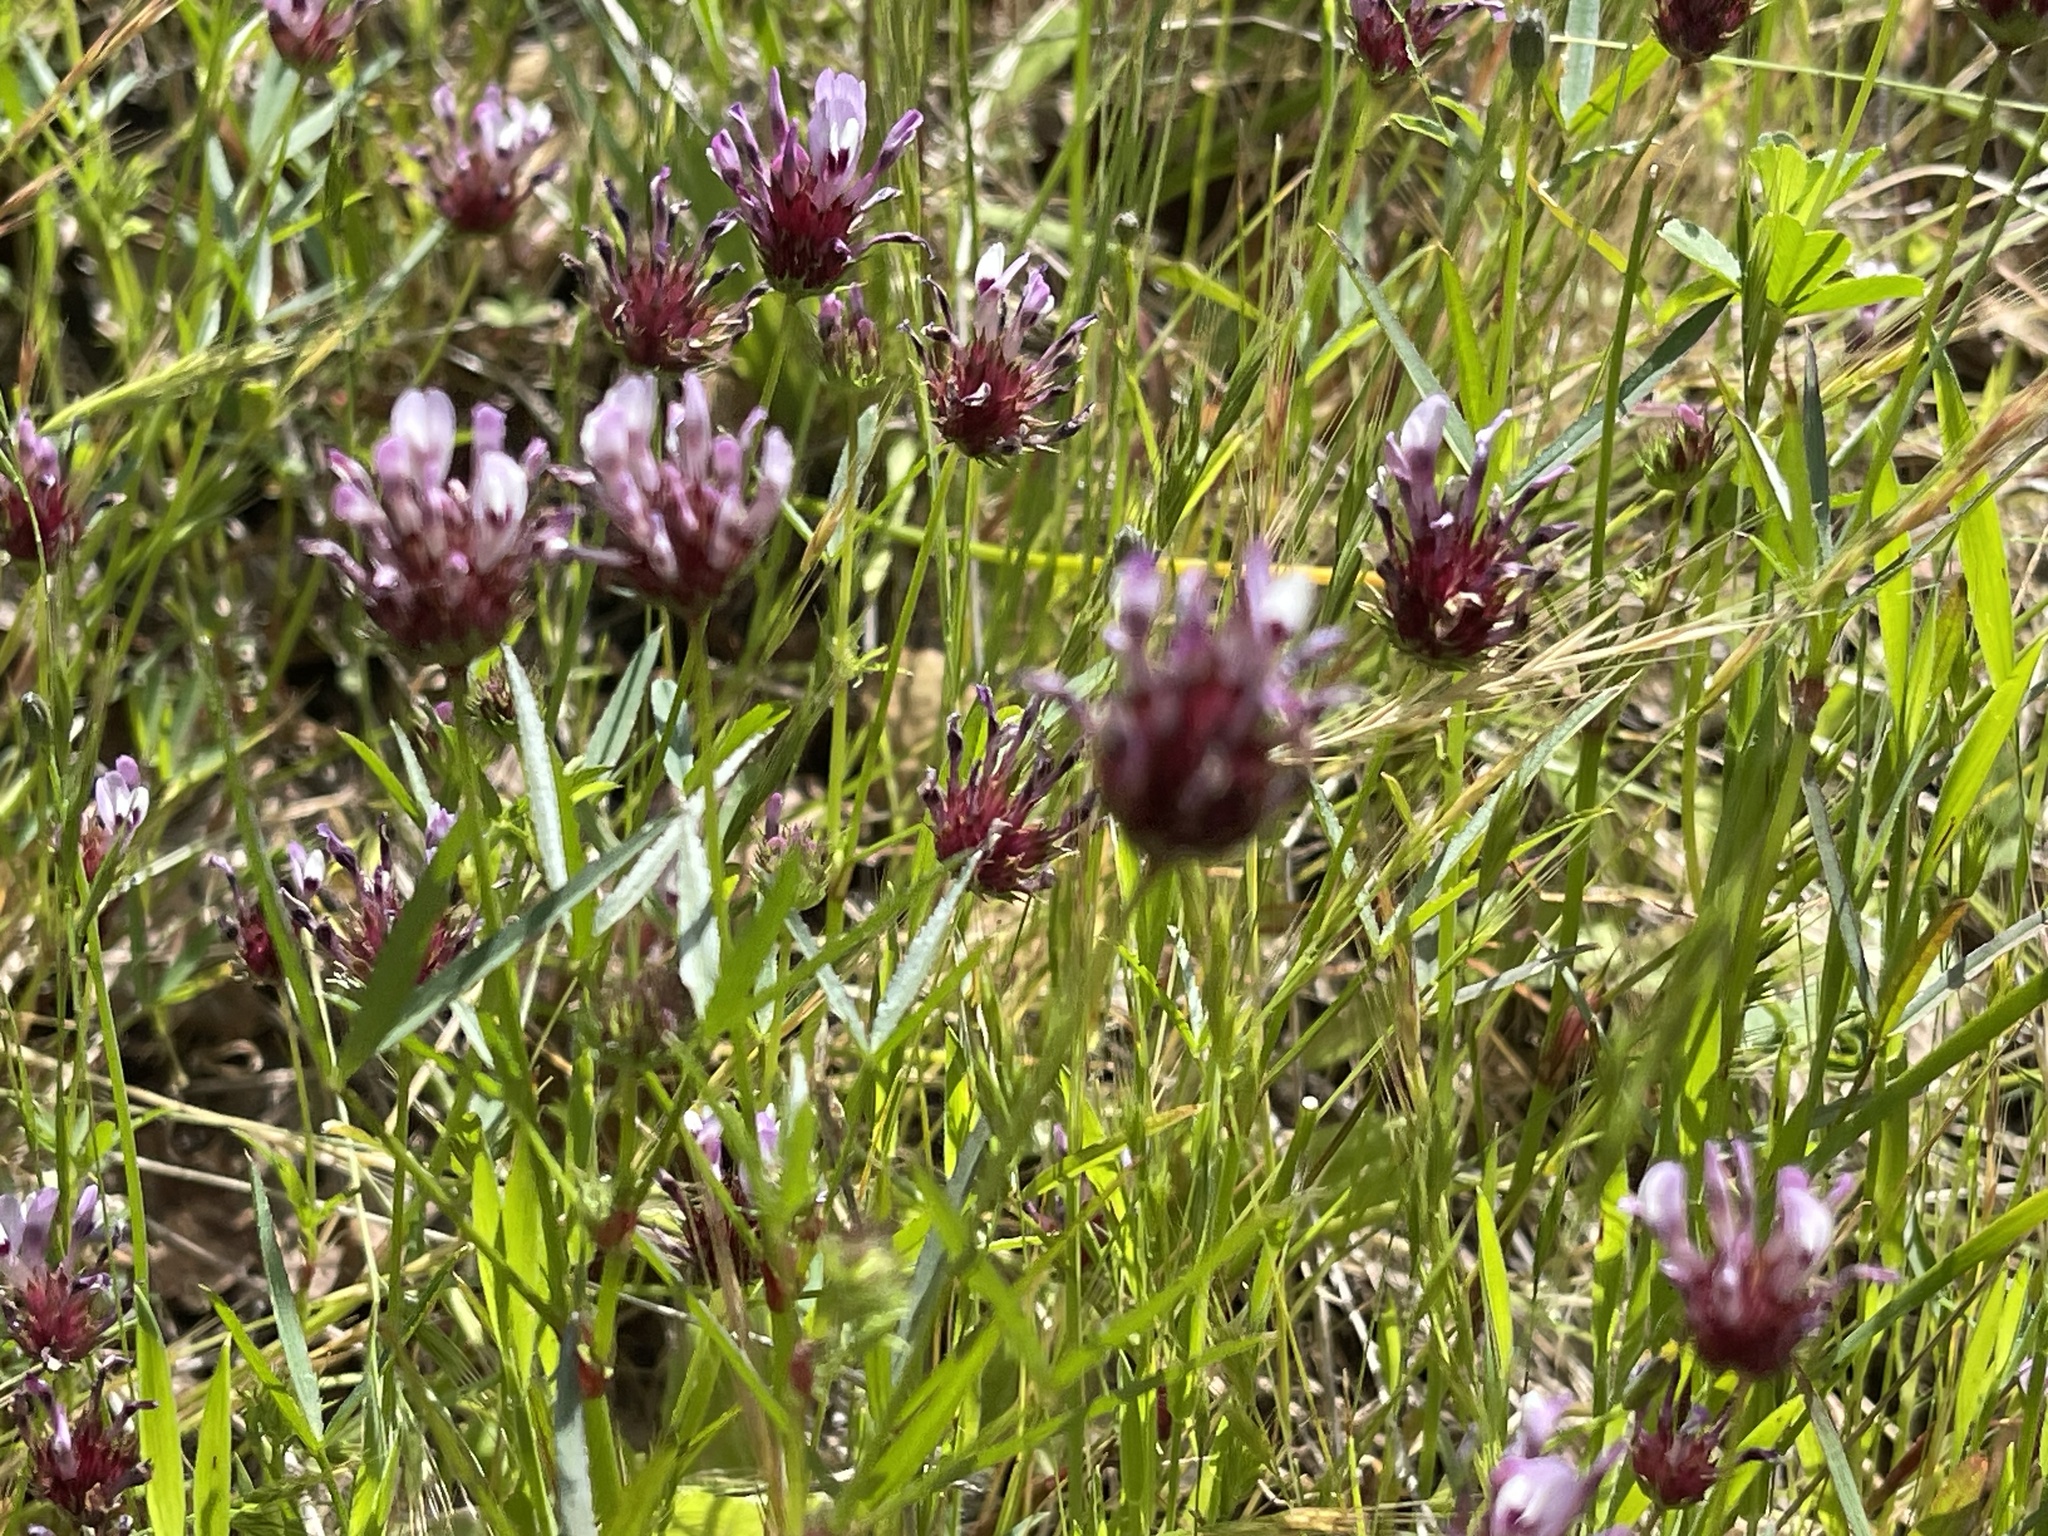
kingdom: Plantae
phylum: Tracheophyta
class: Magnoliopsida
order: Fabales
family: Fabaceae
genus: Trifolium
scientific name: Trifolium willdenovii
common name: Tomcat clover
